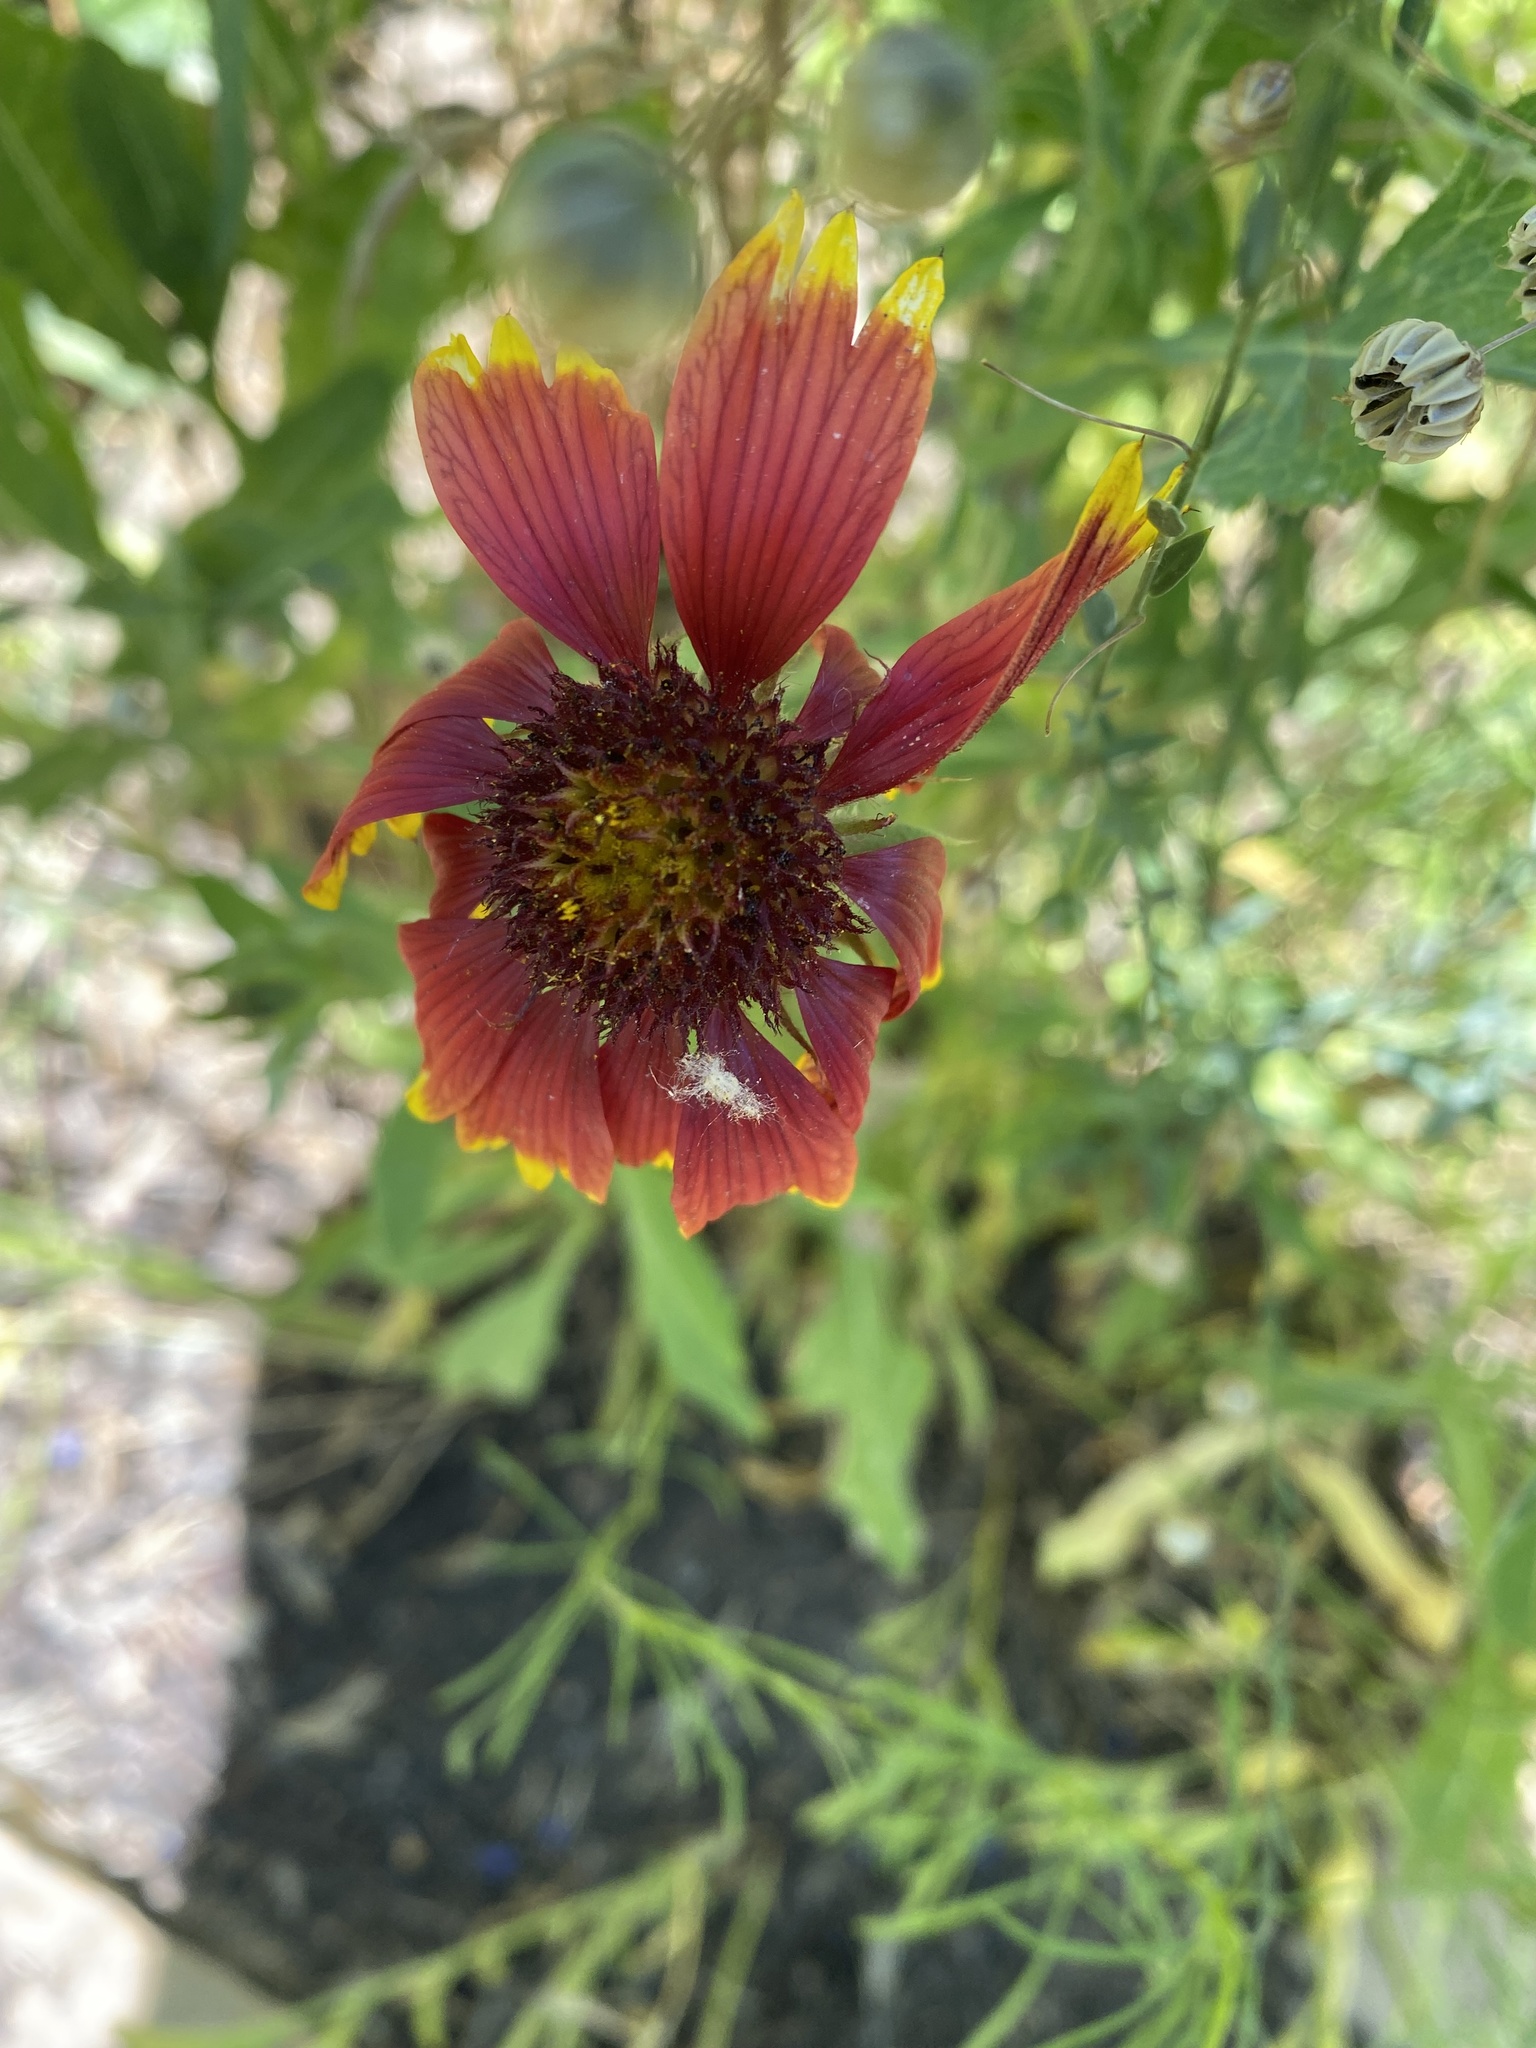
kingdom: Plantae
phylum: Tracheophyta
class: Magnoliopsida
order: Asterales
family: Asteraceae
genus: Gaillardia
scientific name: Gaillardia pulchella
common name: Firewheel
